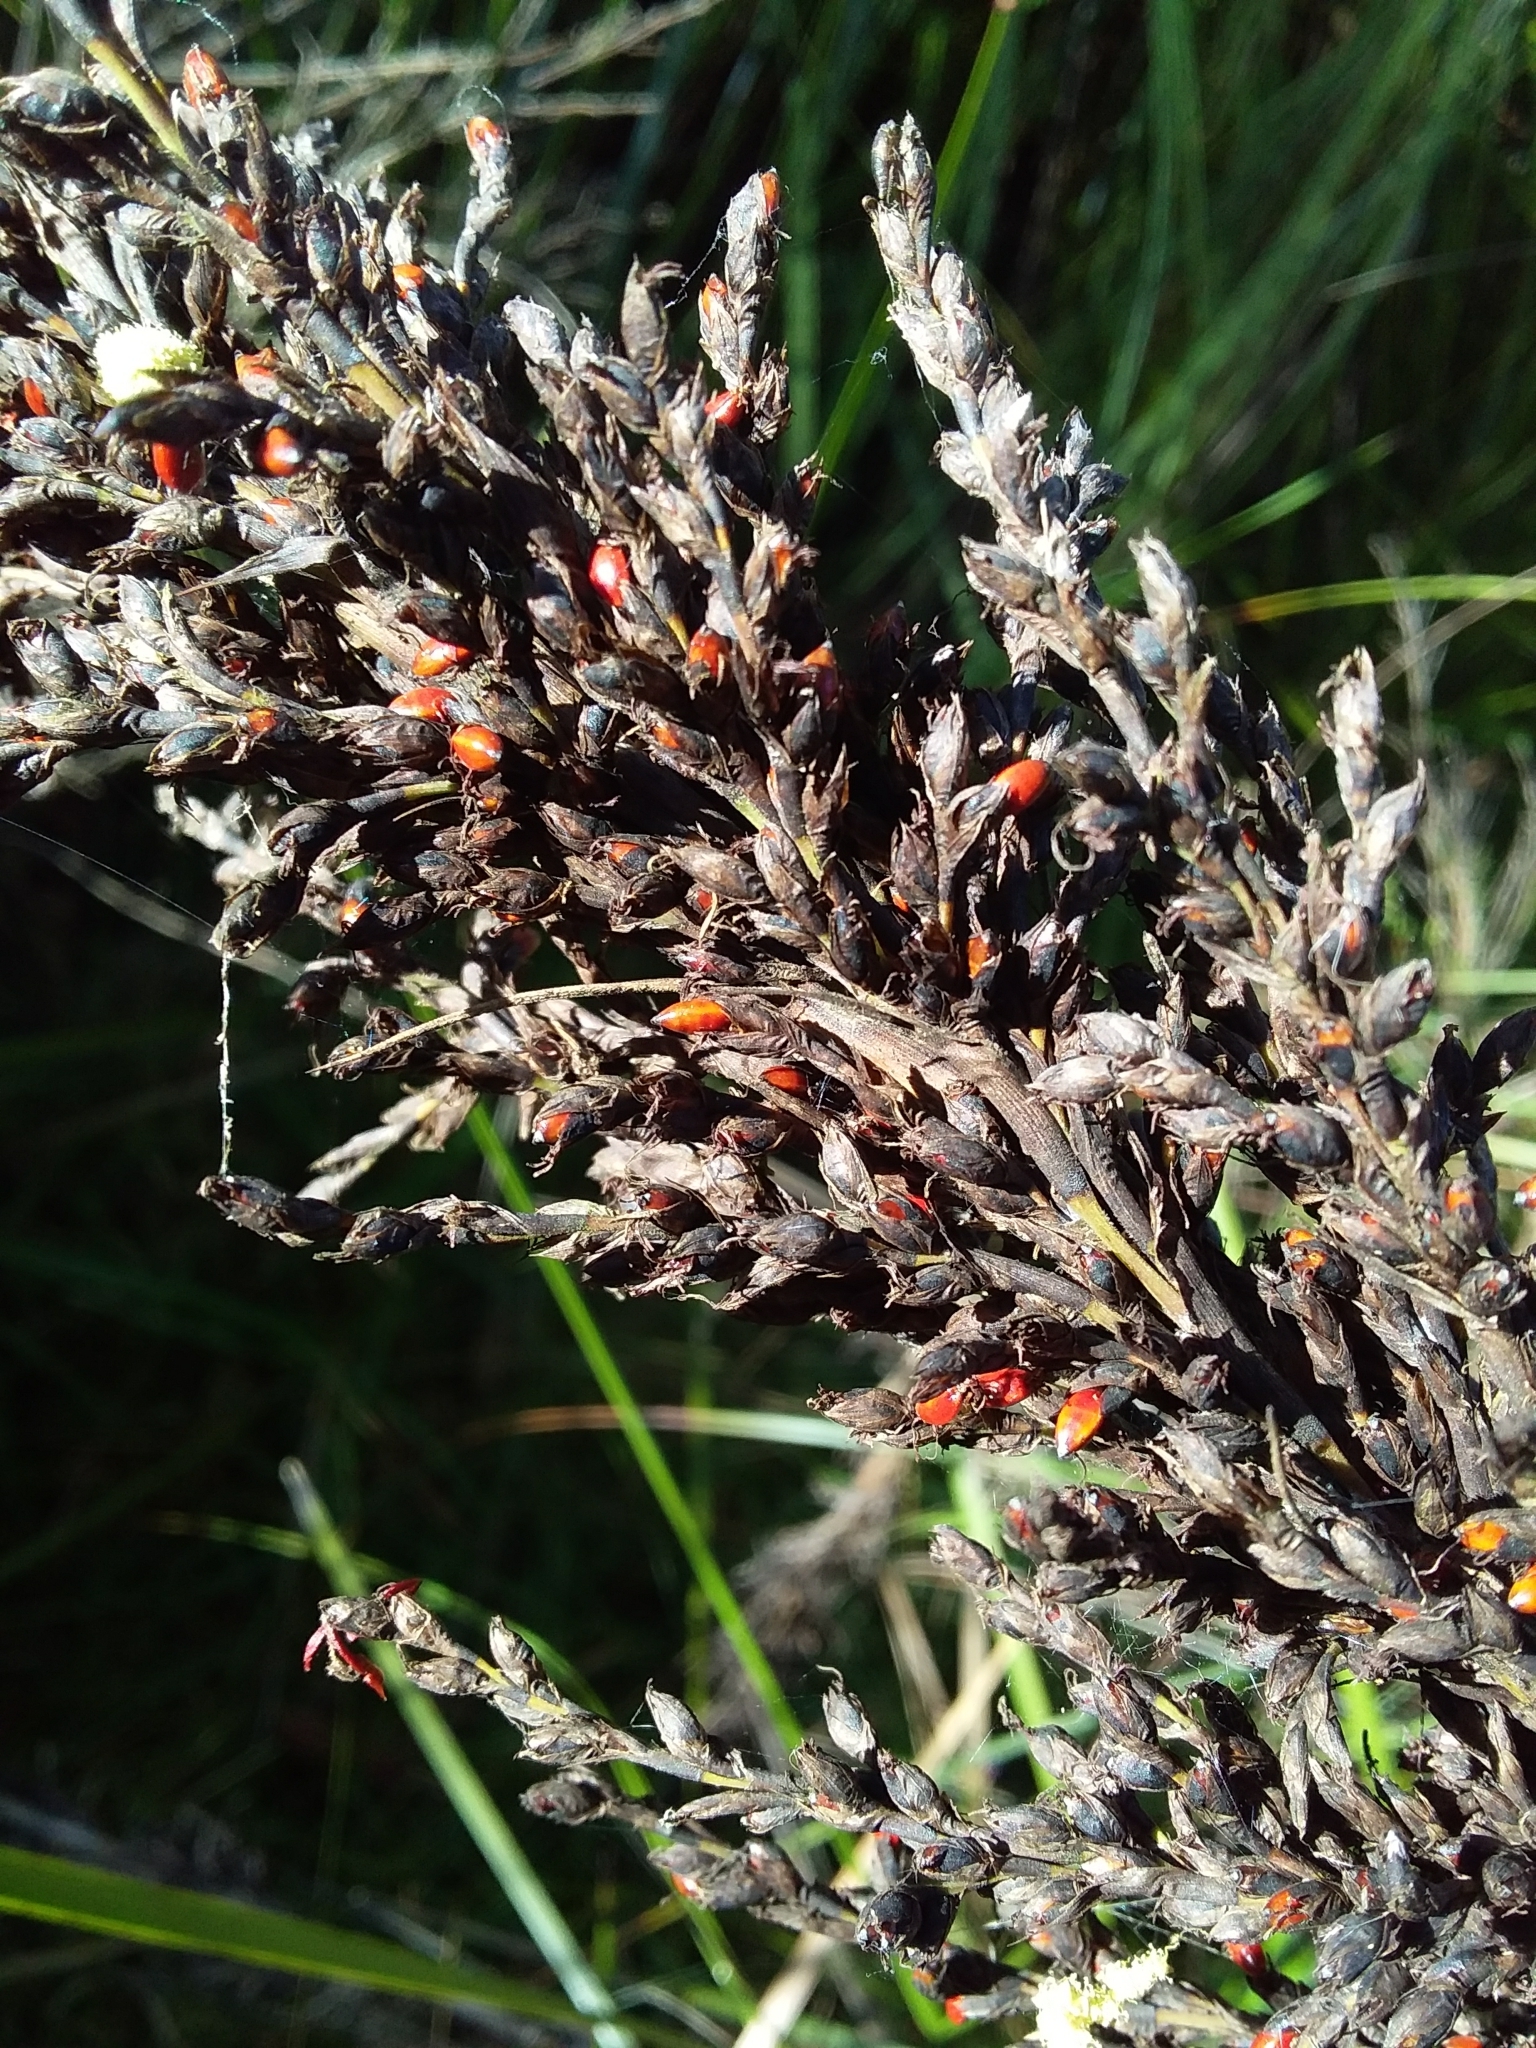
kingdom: Plantae
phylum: Tracheophyta
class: Liliopsida
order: Poales
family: Cyperaceae
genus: Gahnia
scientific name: Gahnia sieberiana
